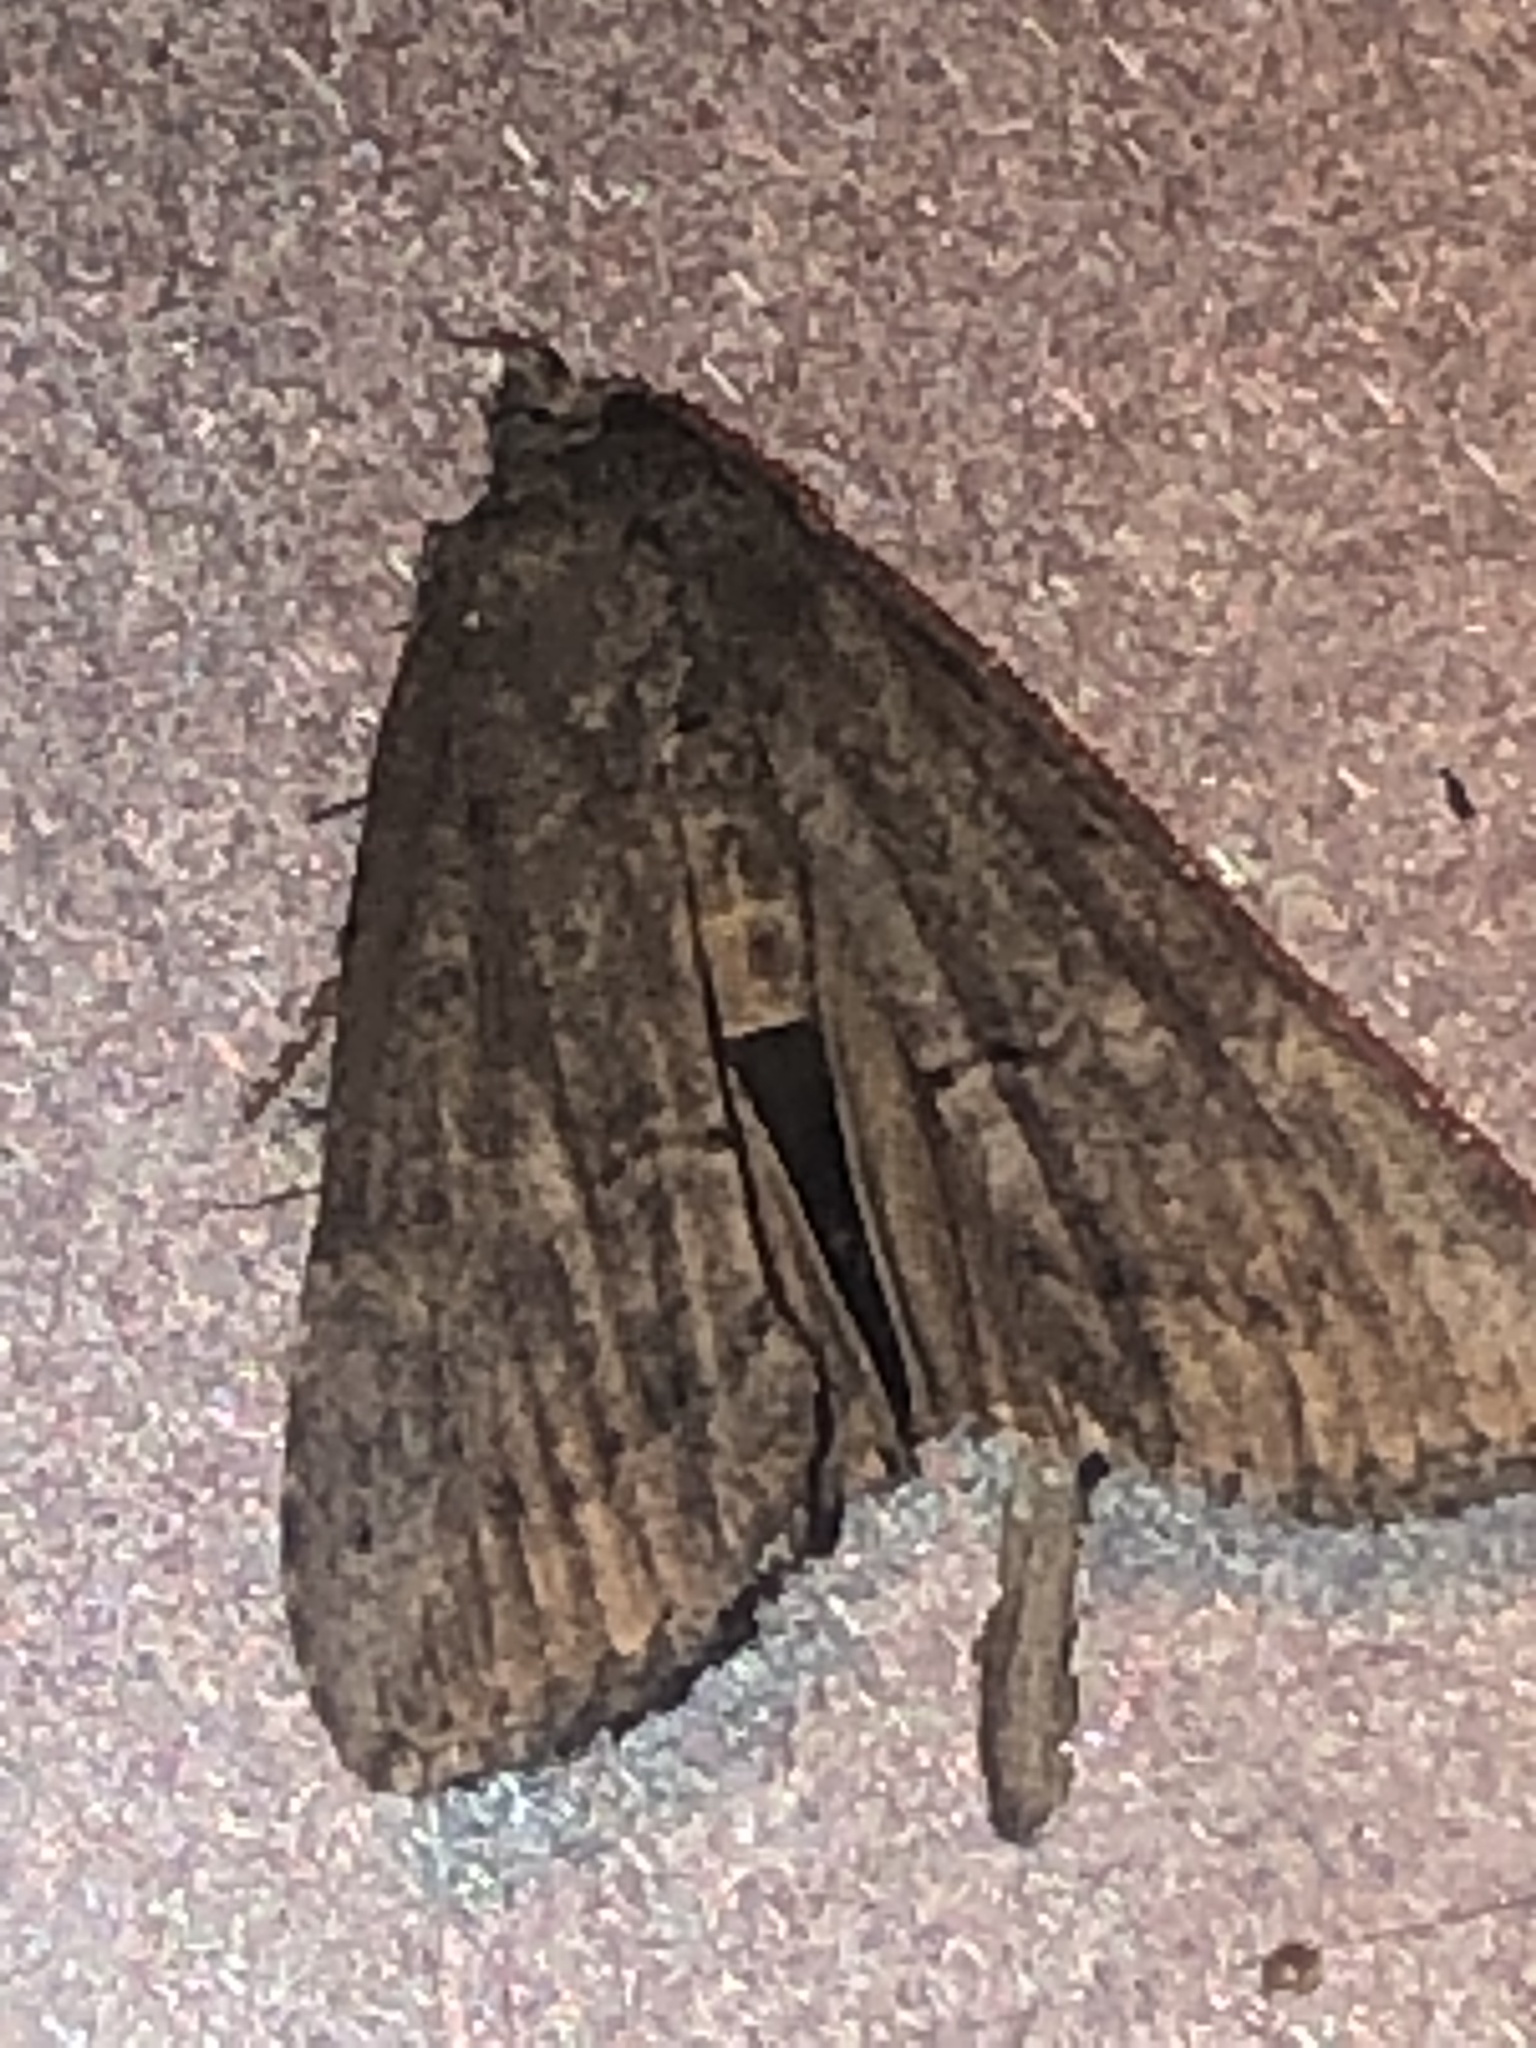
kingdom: Animalia
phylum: Arthropoda
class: Insecta
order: Lepidoptera
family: Erebidae
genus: Hypena
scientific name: Hypena scabra
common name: Green cloverworm
